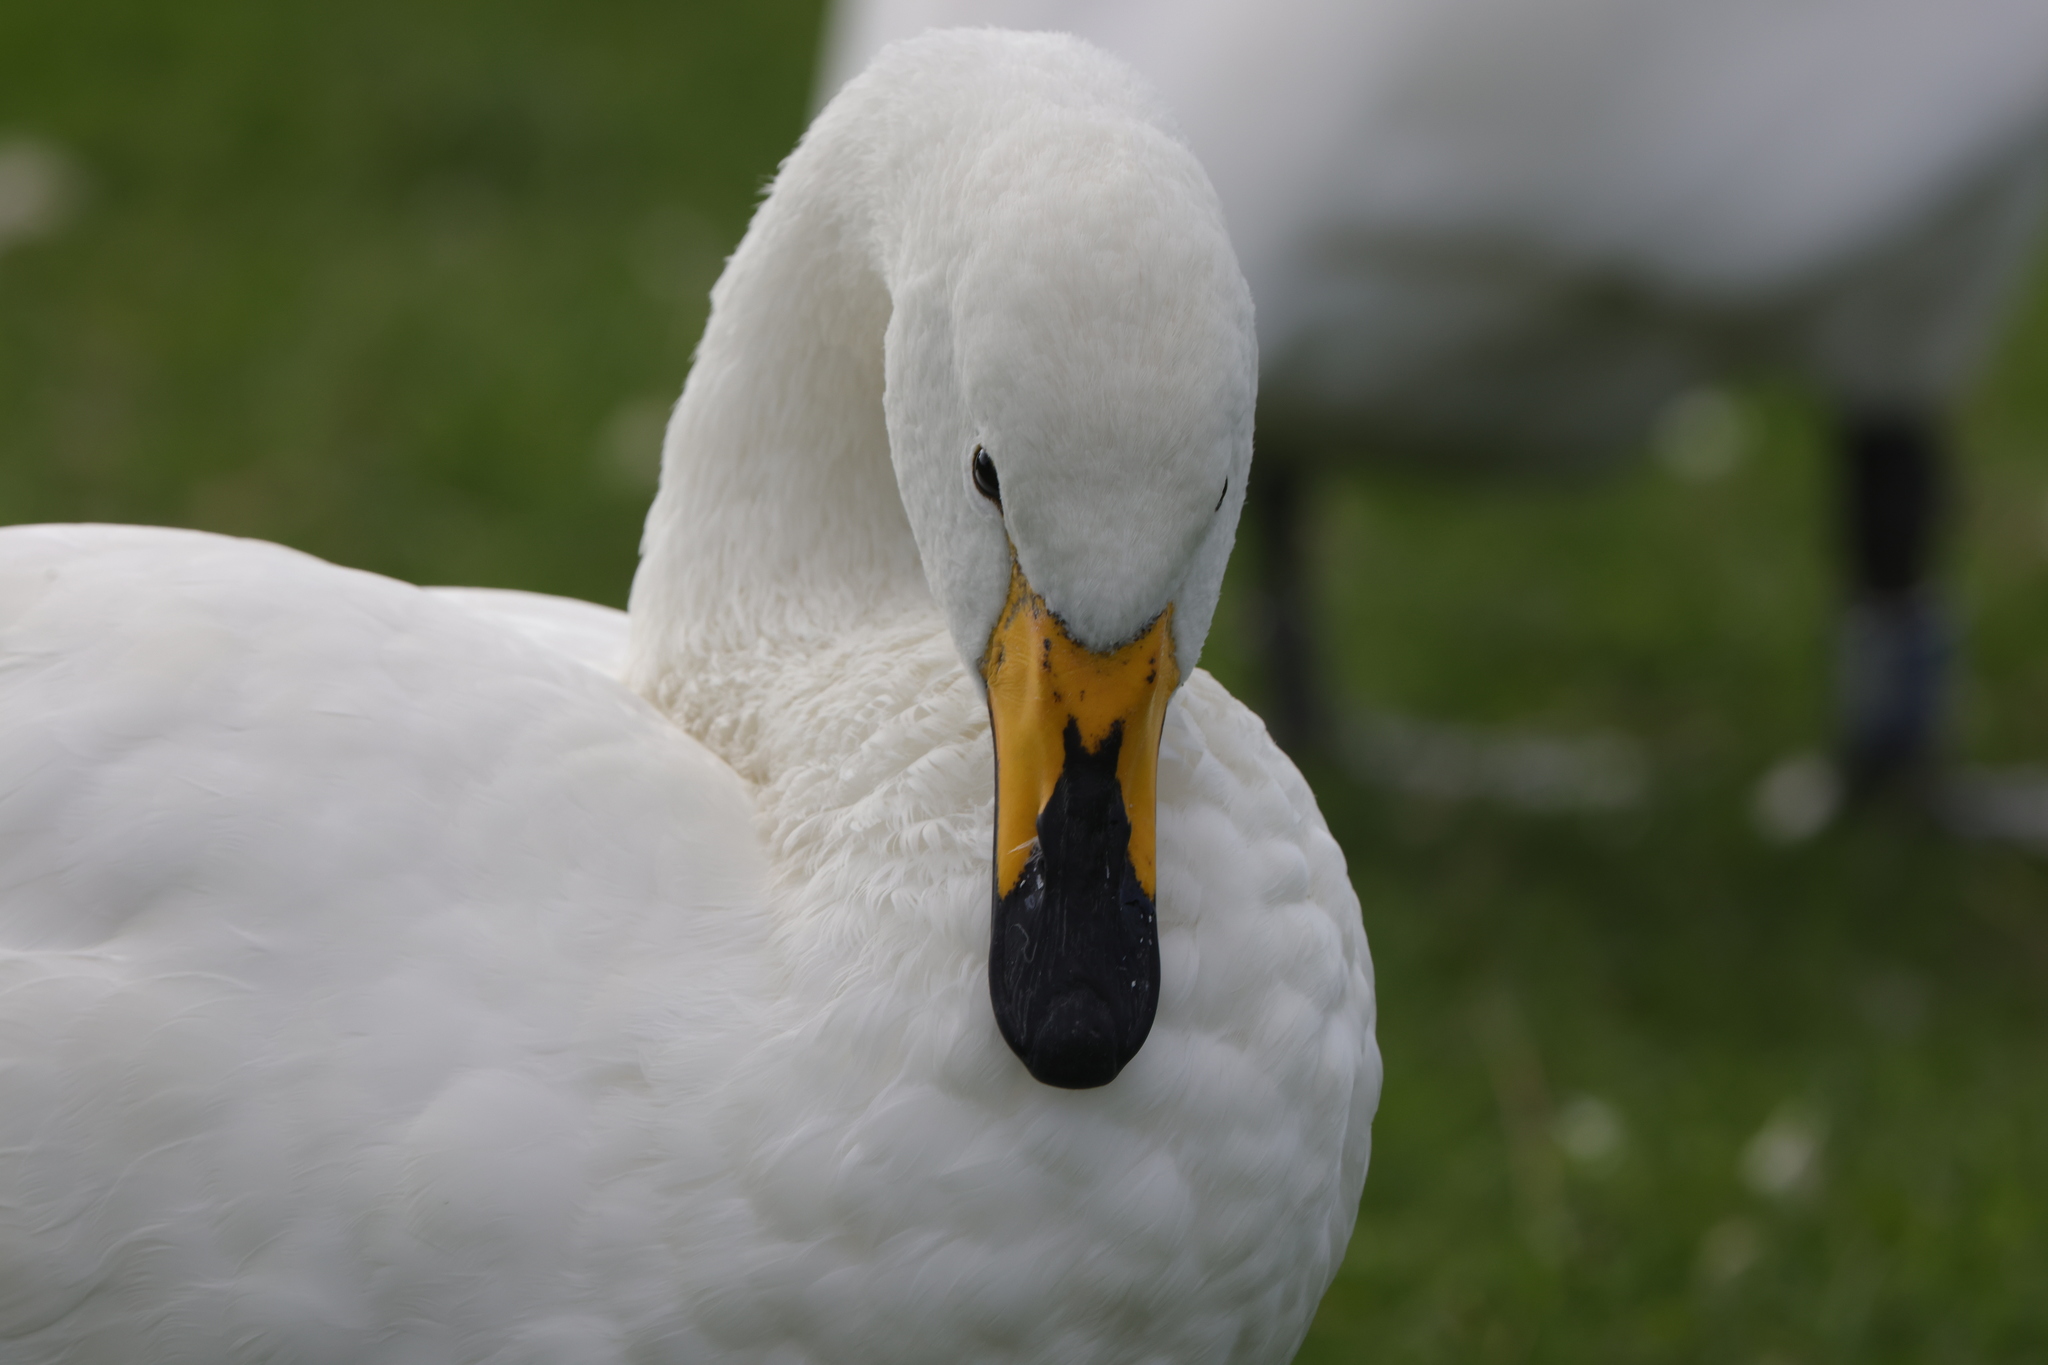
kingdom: Animalia
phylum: Chordata
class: Aves
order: Anseriformes
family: Anatidae
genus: Cygnus
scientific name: Cygnus cygnus
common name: Whooper swan
